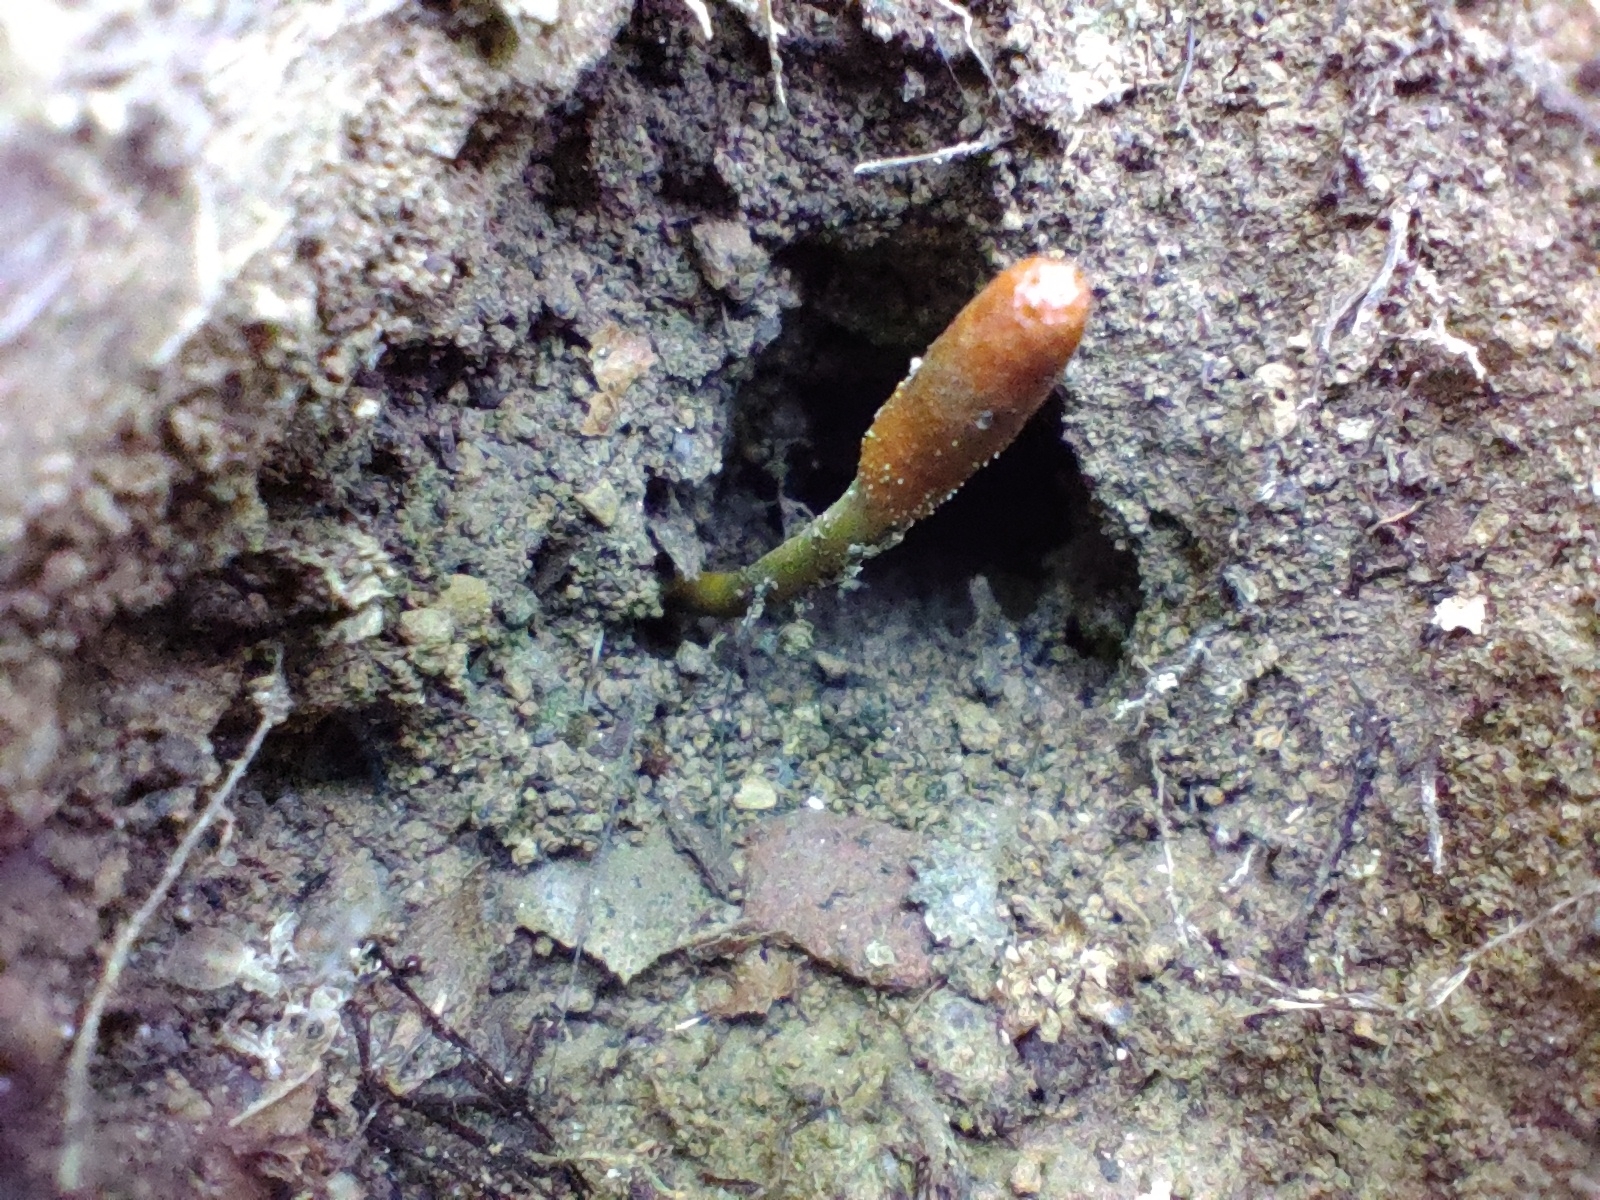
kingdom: Fungi
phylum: Ascomycota
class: Sordariomycetes
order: Hypocreales
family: Ophiocordycipitaceae
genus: Tolypocladium
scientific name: Tolypocladium ophioglossoides
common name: Snaketongue truffleclub
